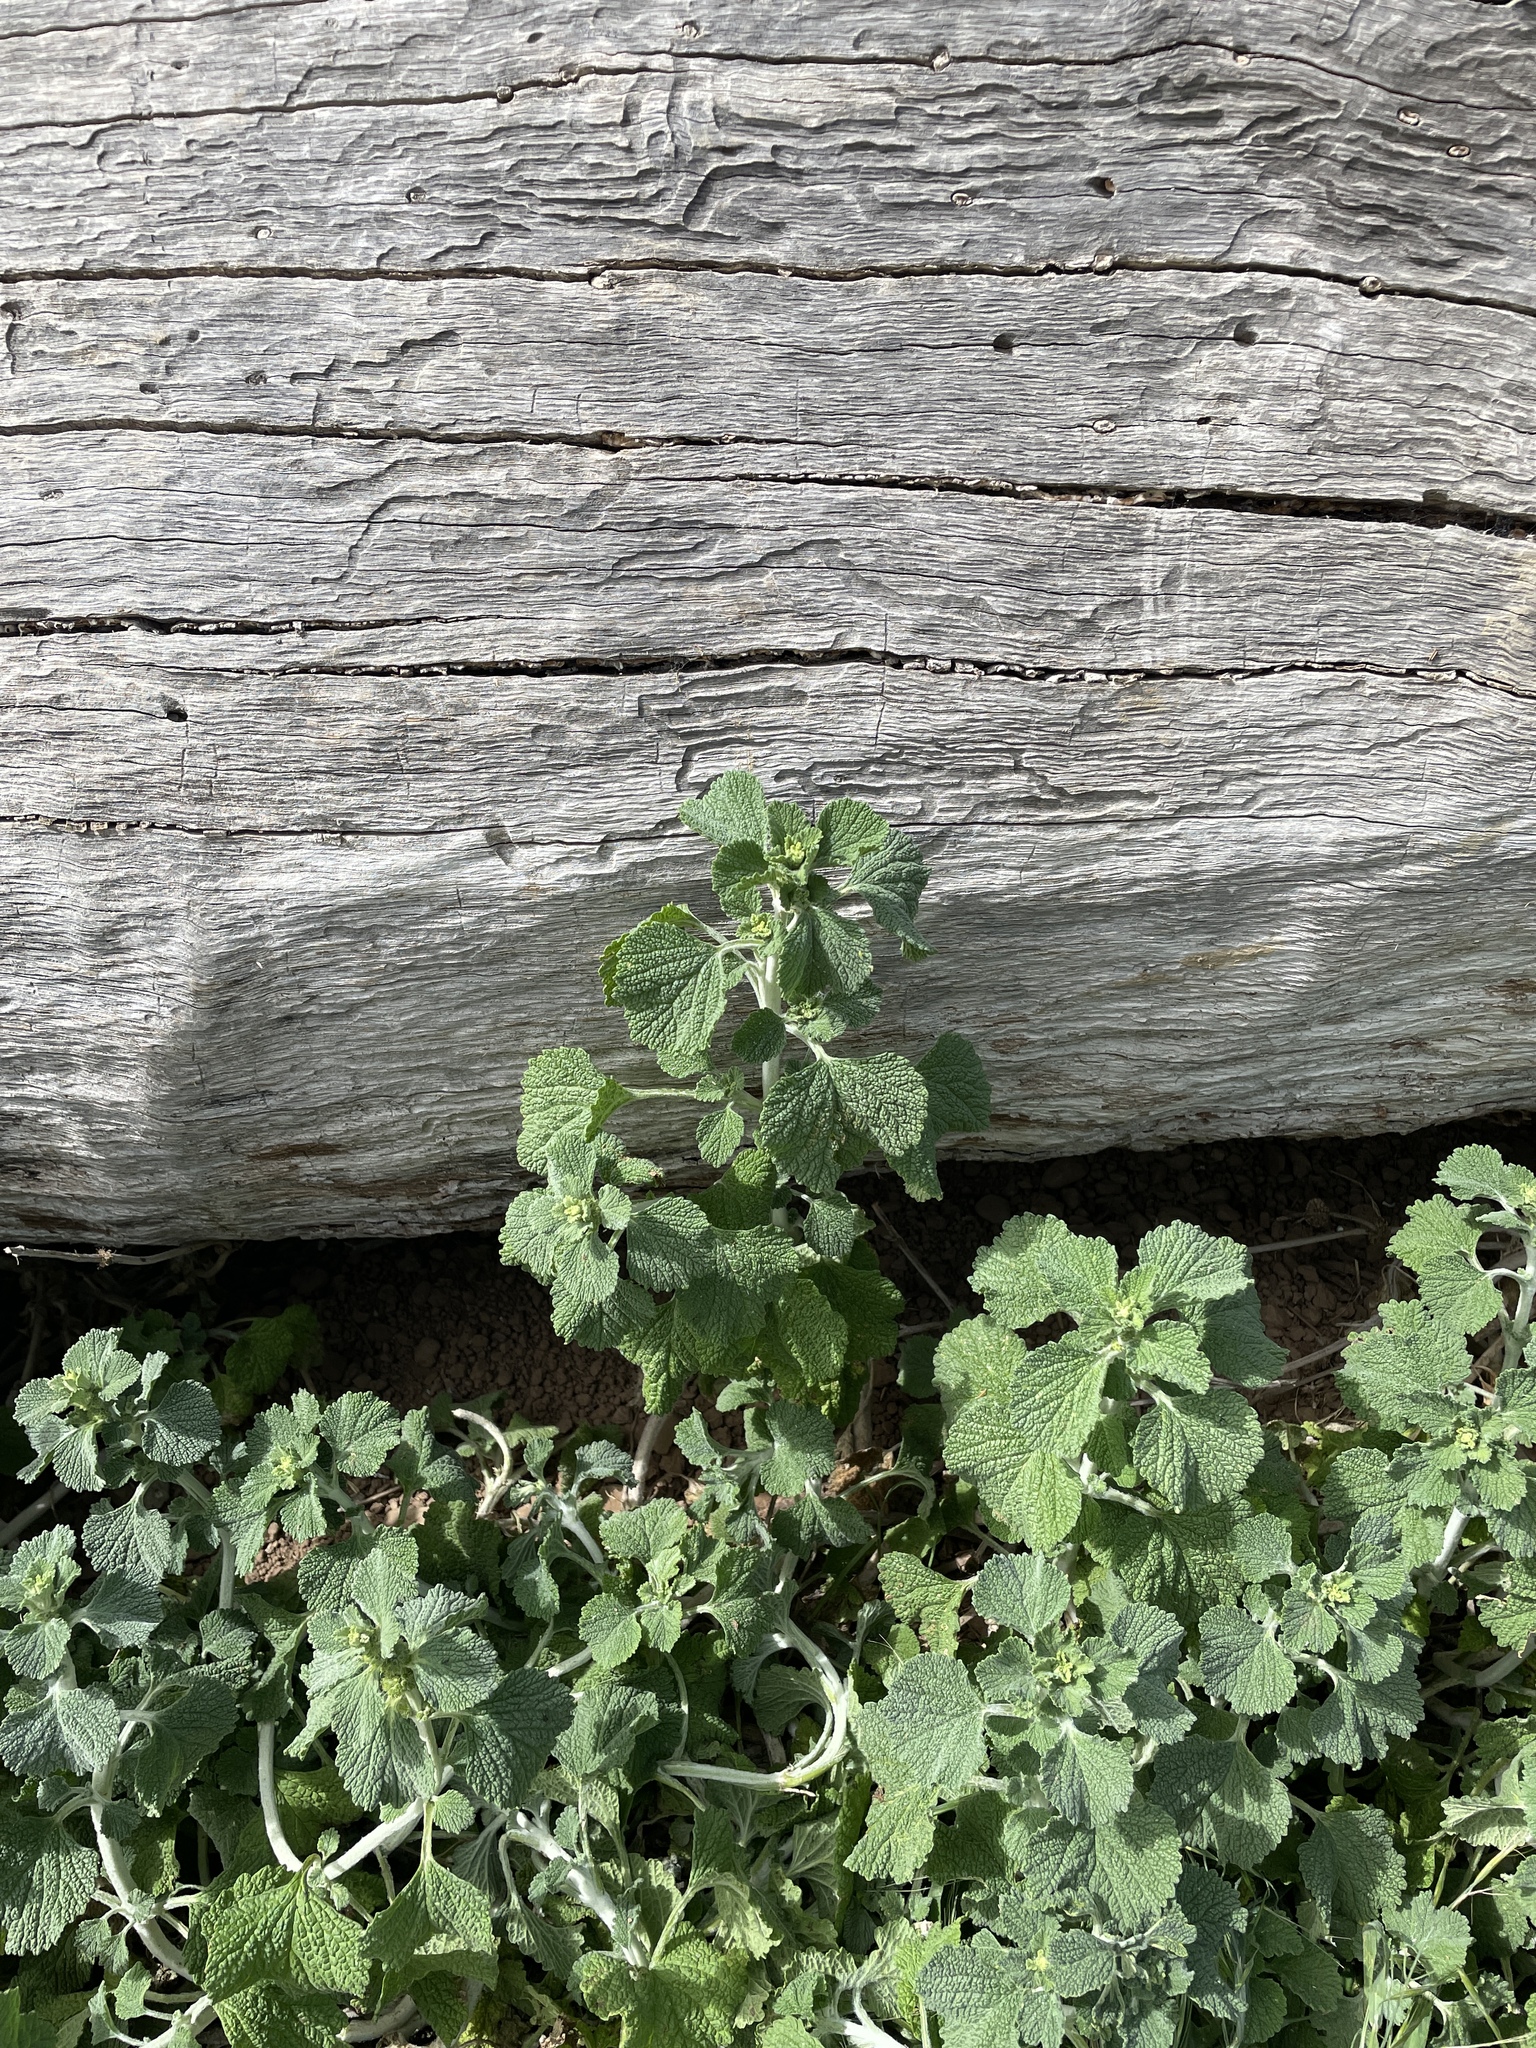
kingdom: Plantae
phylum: Tracheophyta
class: Magnoliopsida
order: Lamiales
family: Lamiaceae
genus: Marrubium
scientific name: Marrubium vulgare
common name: Horehound
